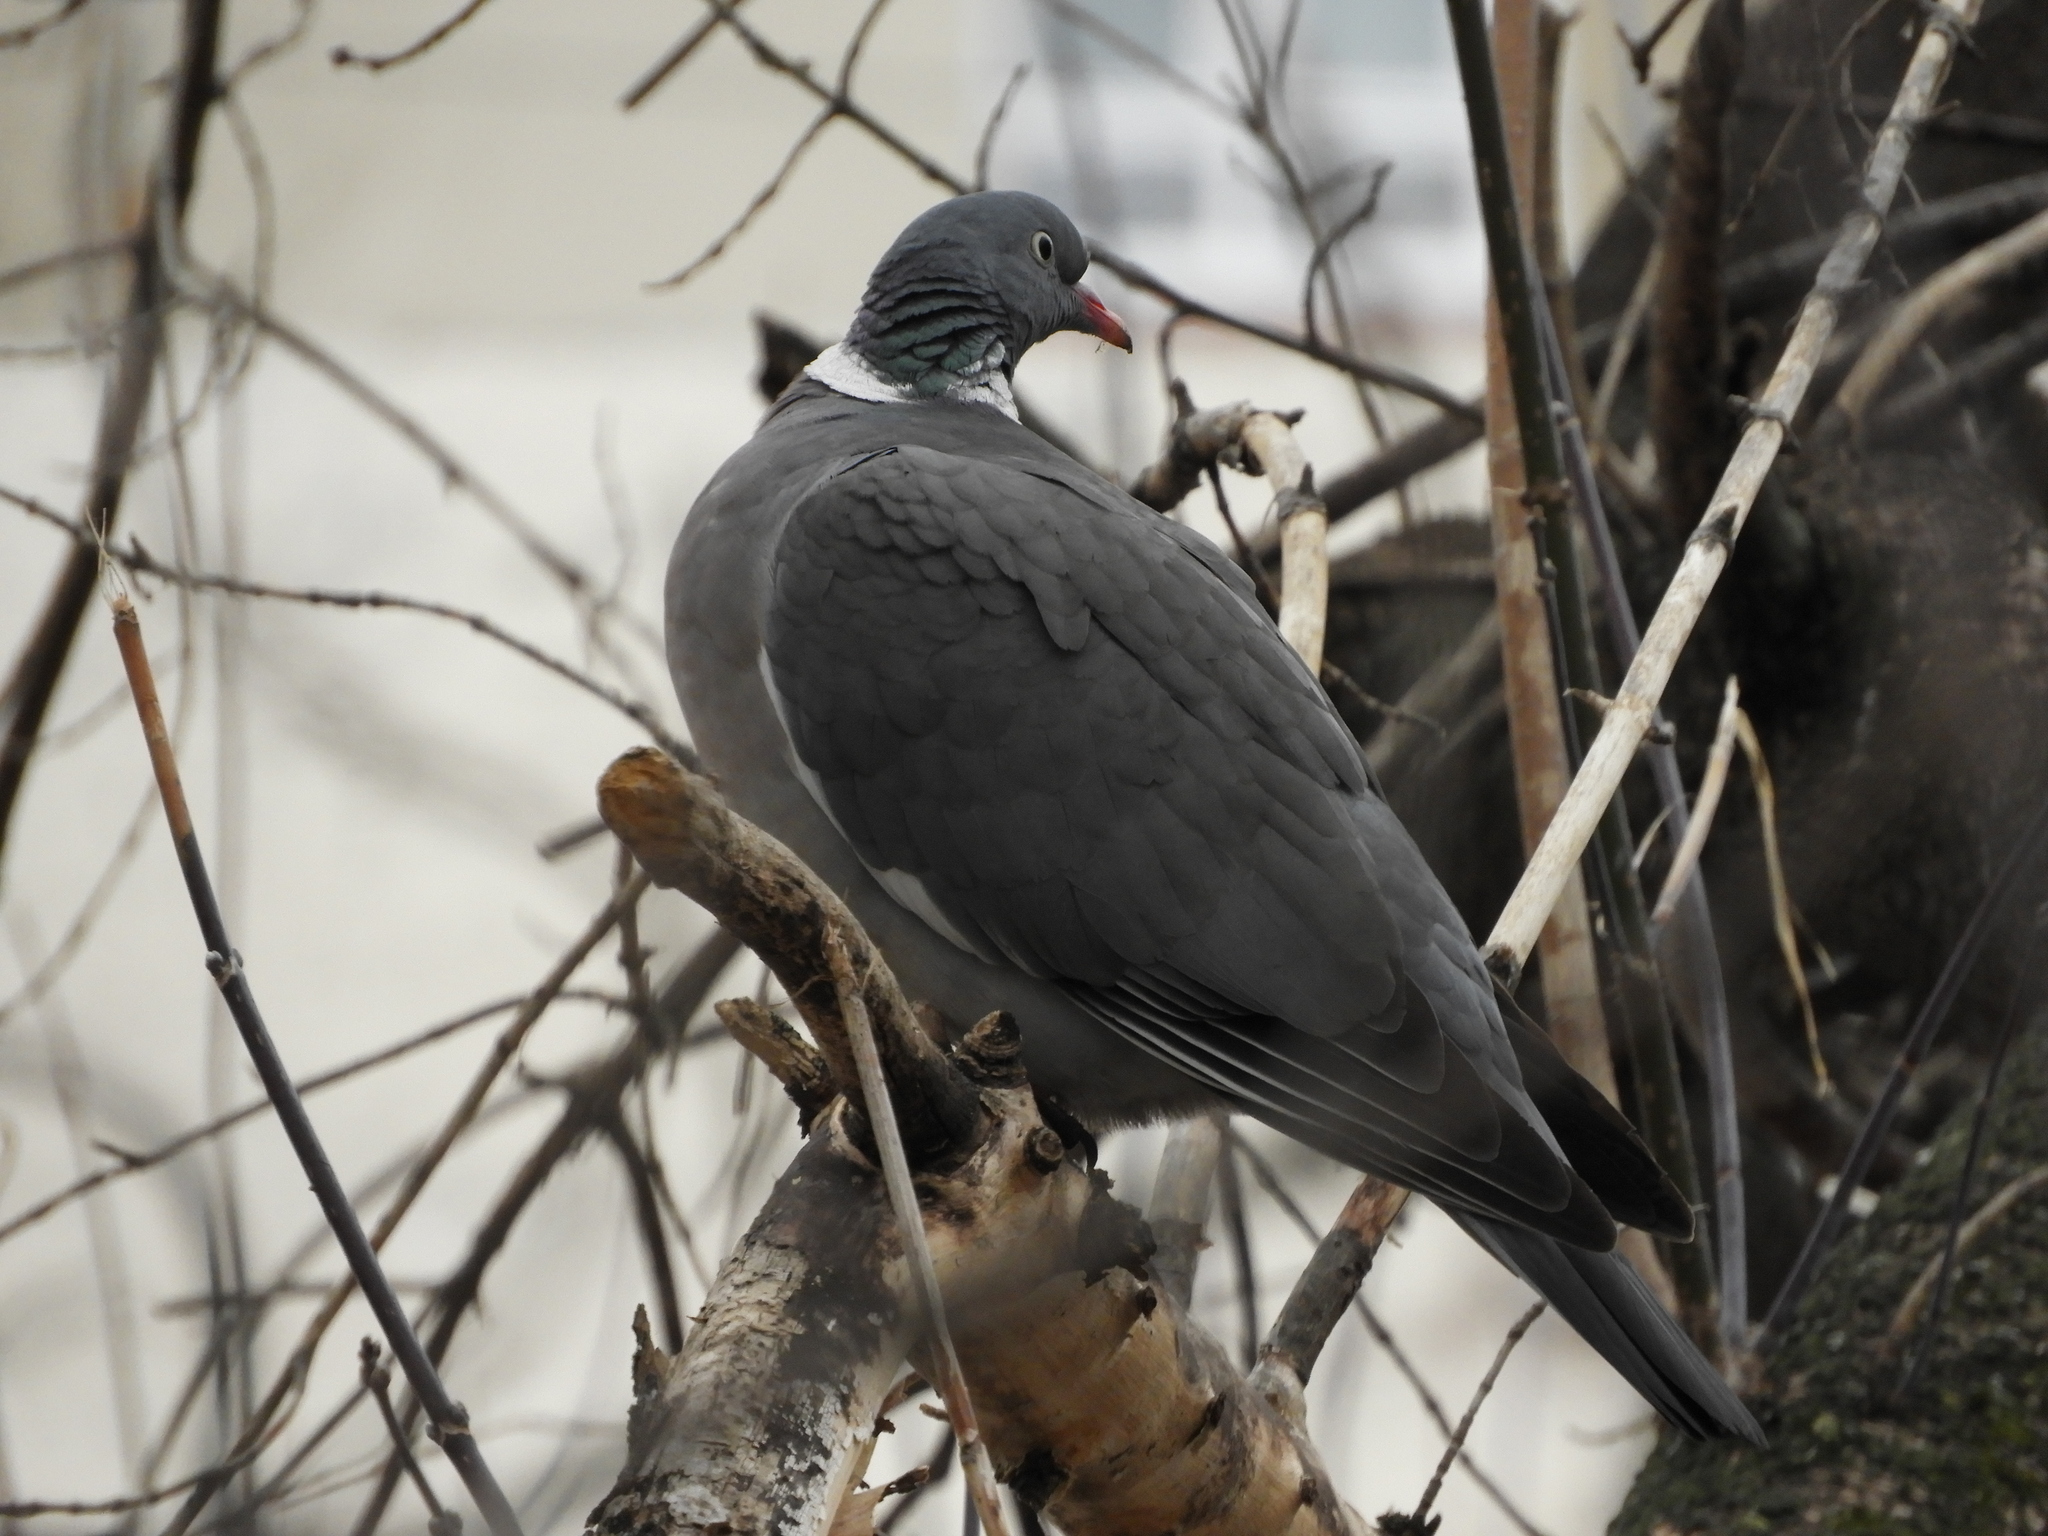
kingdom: Animalia
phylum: Chordata
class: Aves
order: Columbiformes
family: Columbidae
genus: Columba
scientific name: Columba palumbus
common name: Common wood pigeon
